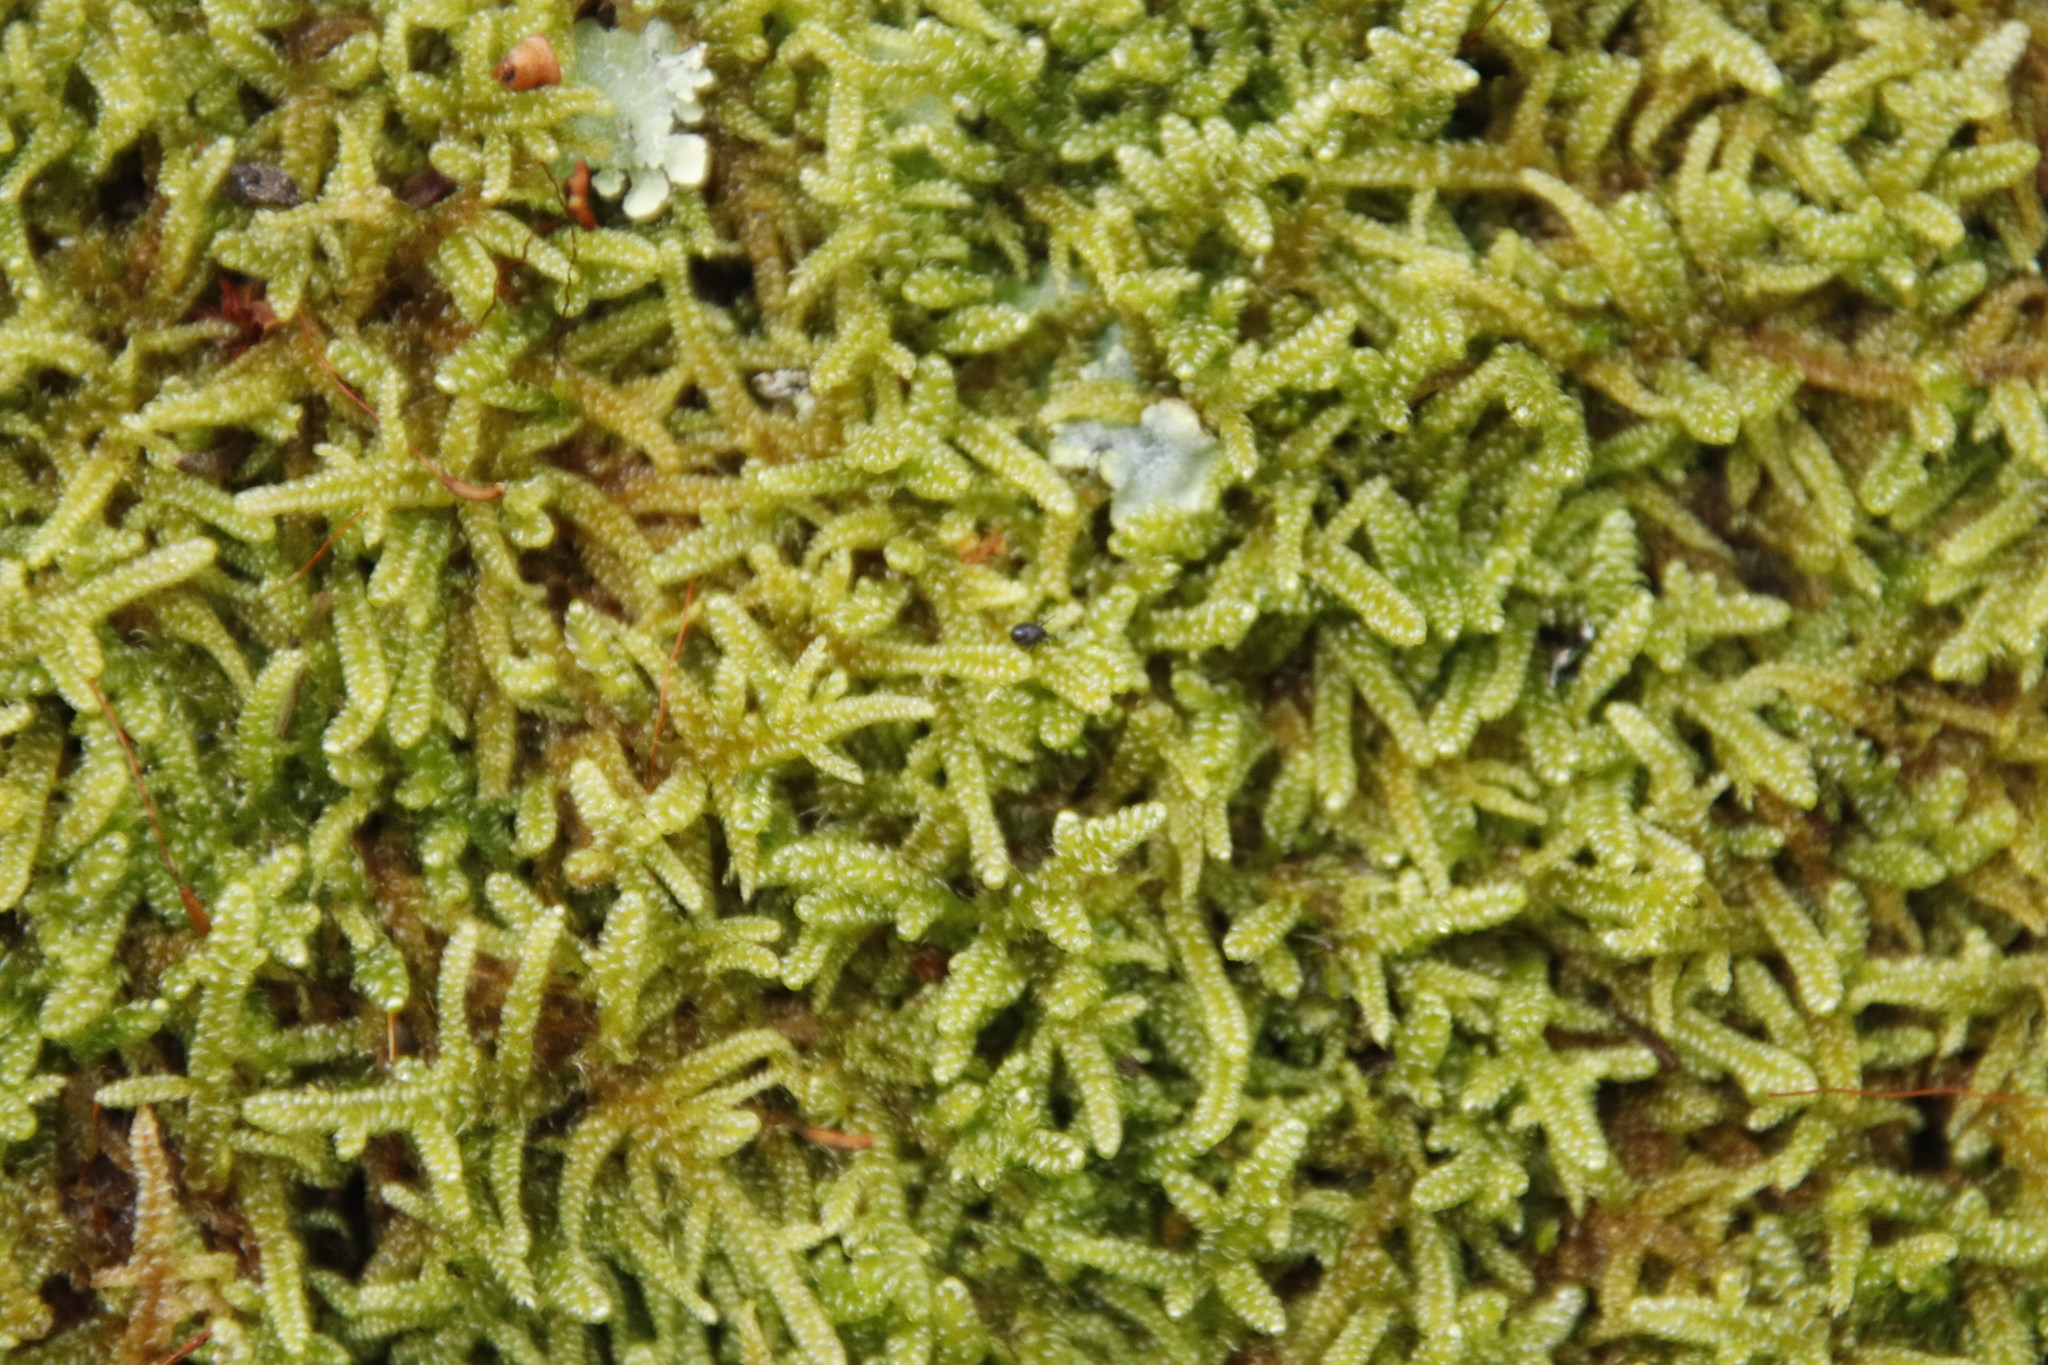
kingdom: Plantae
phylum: Bryophyta
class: Bryopsida
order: Hypnales
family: Hypnaceae
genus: Hypnum
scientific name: Hypnum cupressiforme
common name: Cypress-leaved plait-moss
